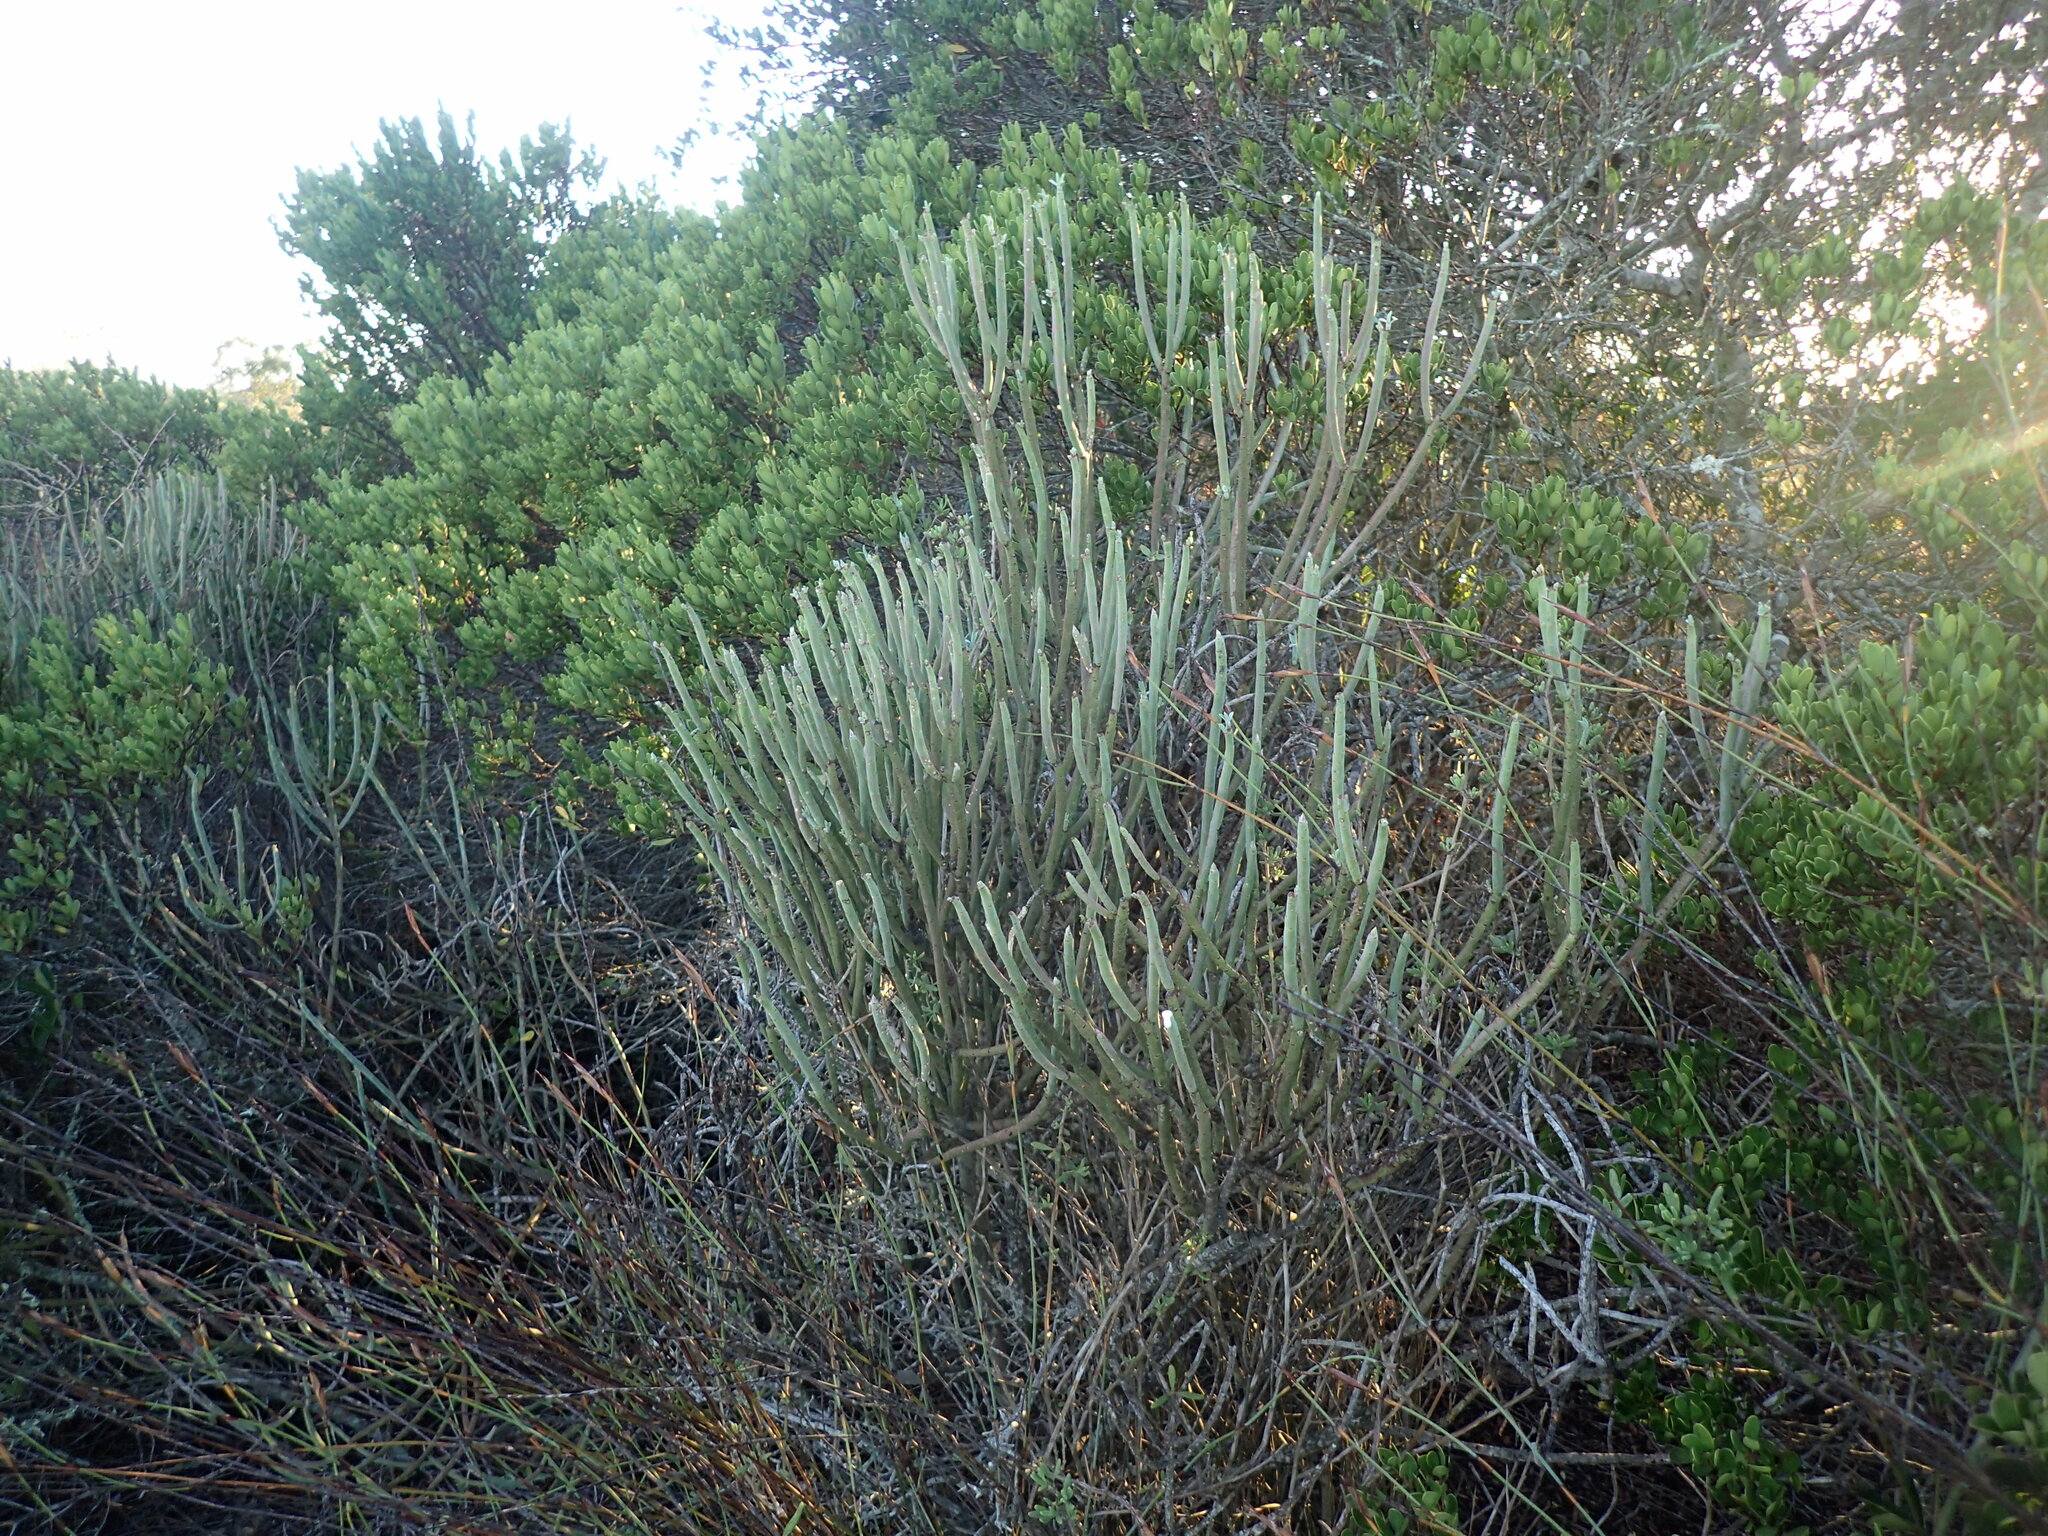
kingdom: Plantae
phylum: Tracheophyta
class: Magnoliopsida
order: Malpighiales
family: Euphorbiaceae
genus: Euphorbia
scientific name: Euphorbia mauritanica
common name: Jackal's-food
